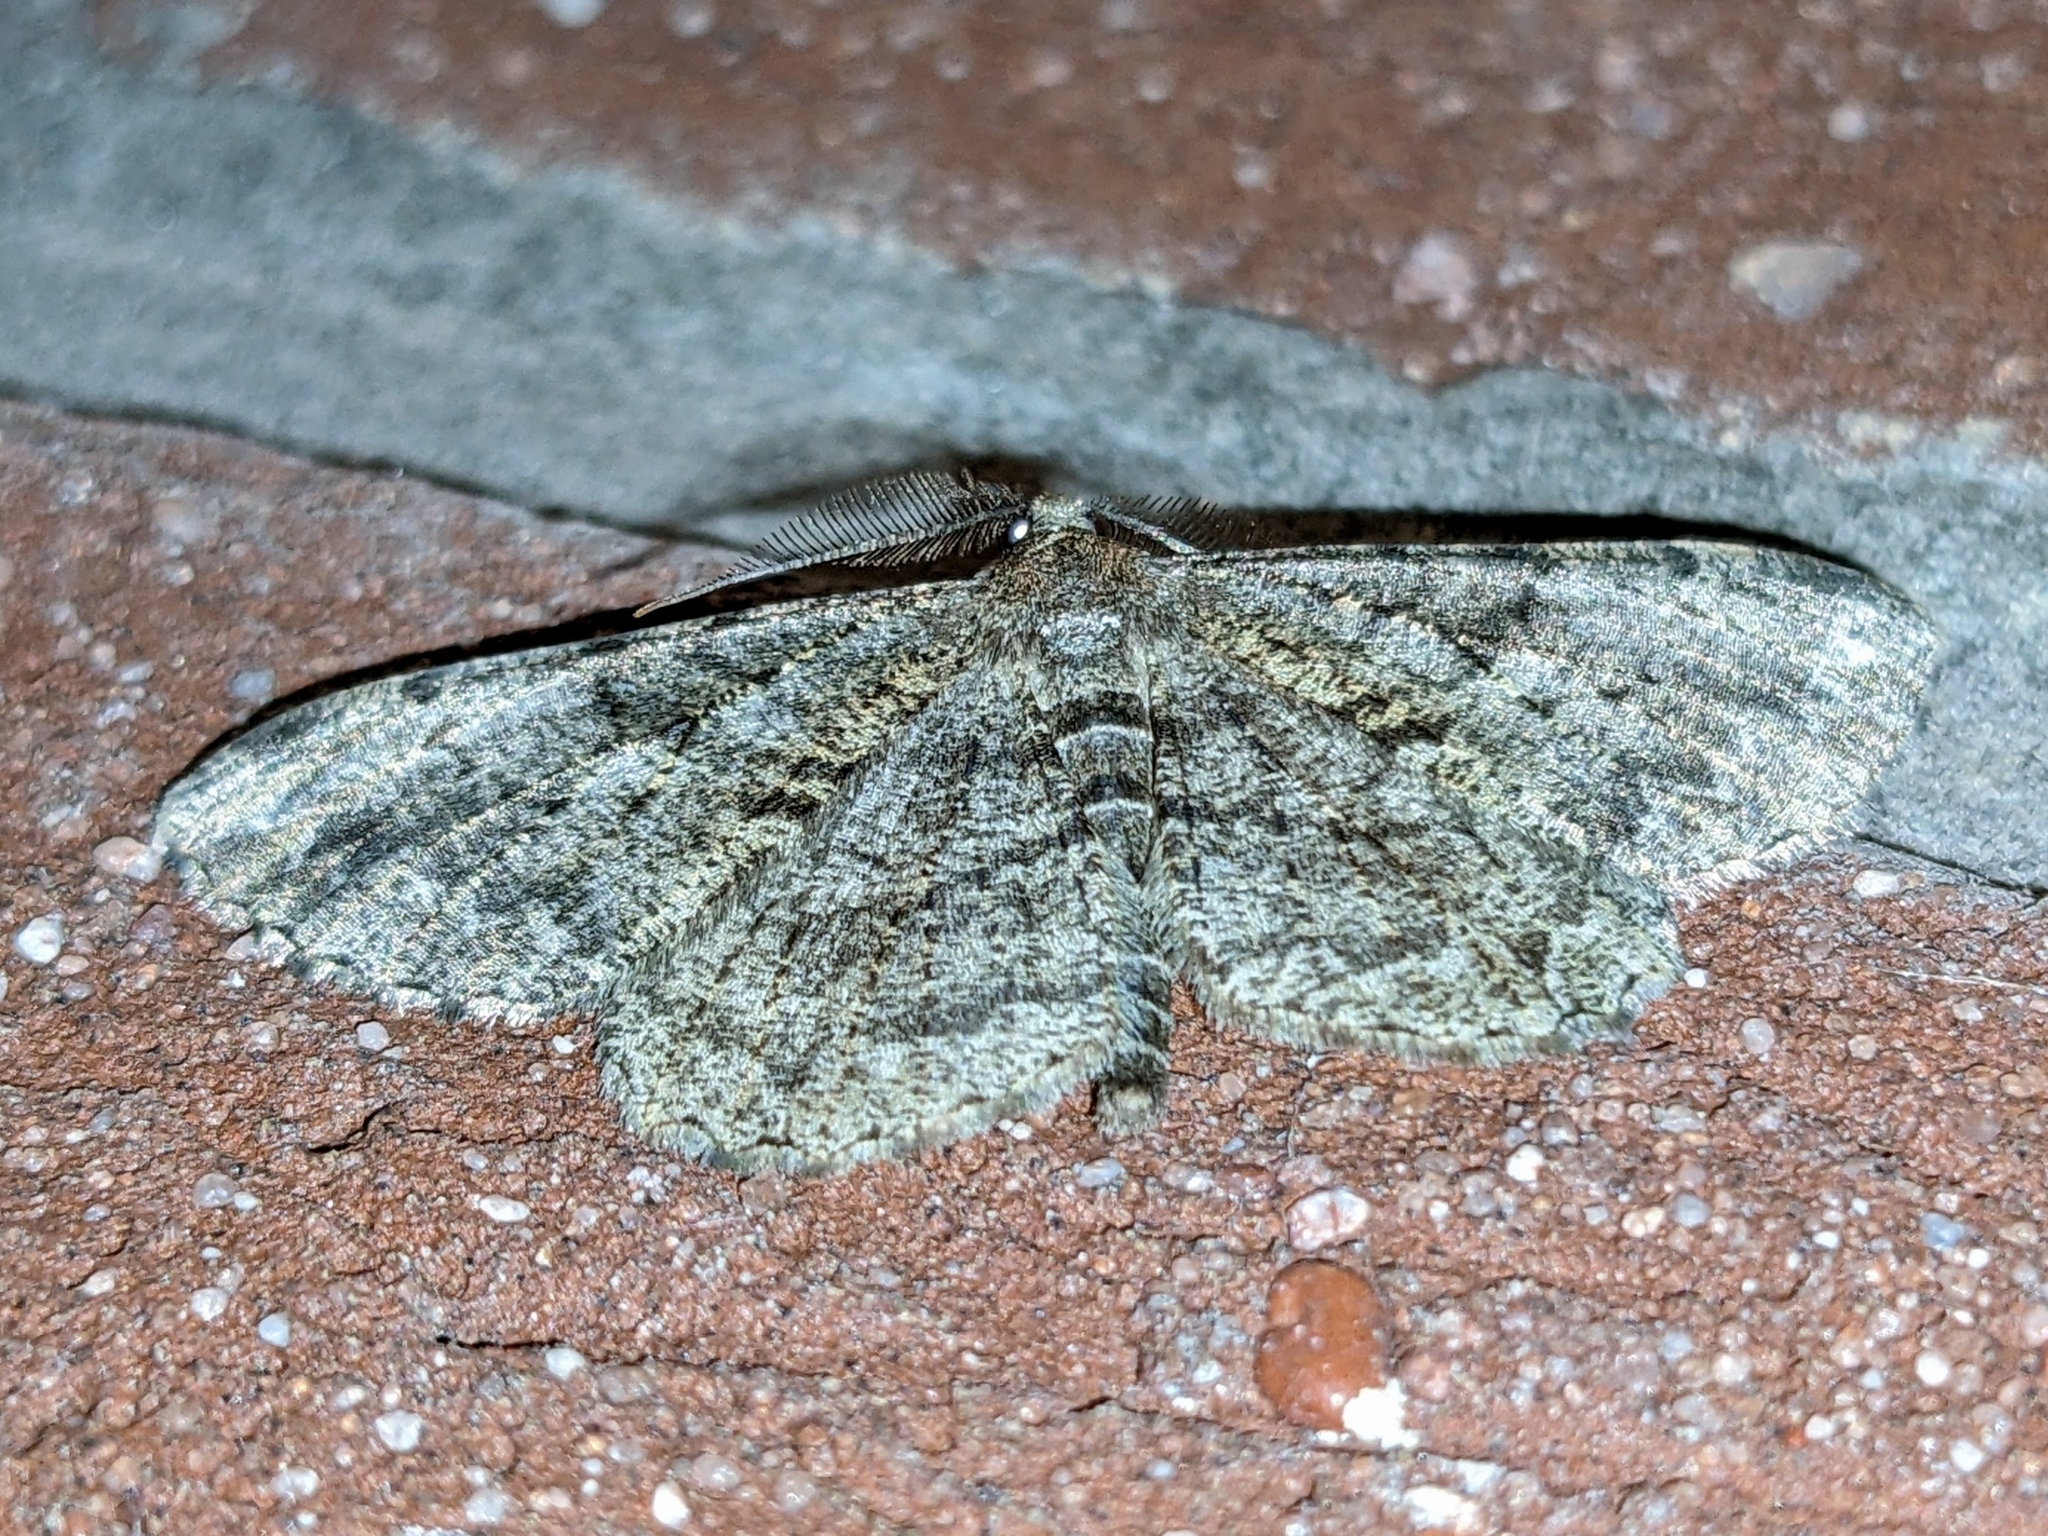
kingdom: Animalia
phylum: Arthropoda
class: Insecta
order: Lepidoptera
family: Geometridae
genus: Peribatodes
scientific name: Peribatodes rhomboidaria
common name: Willow beauty
